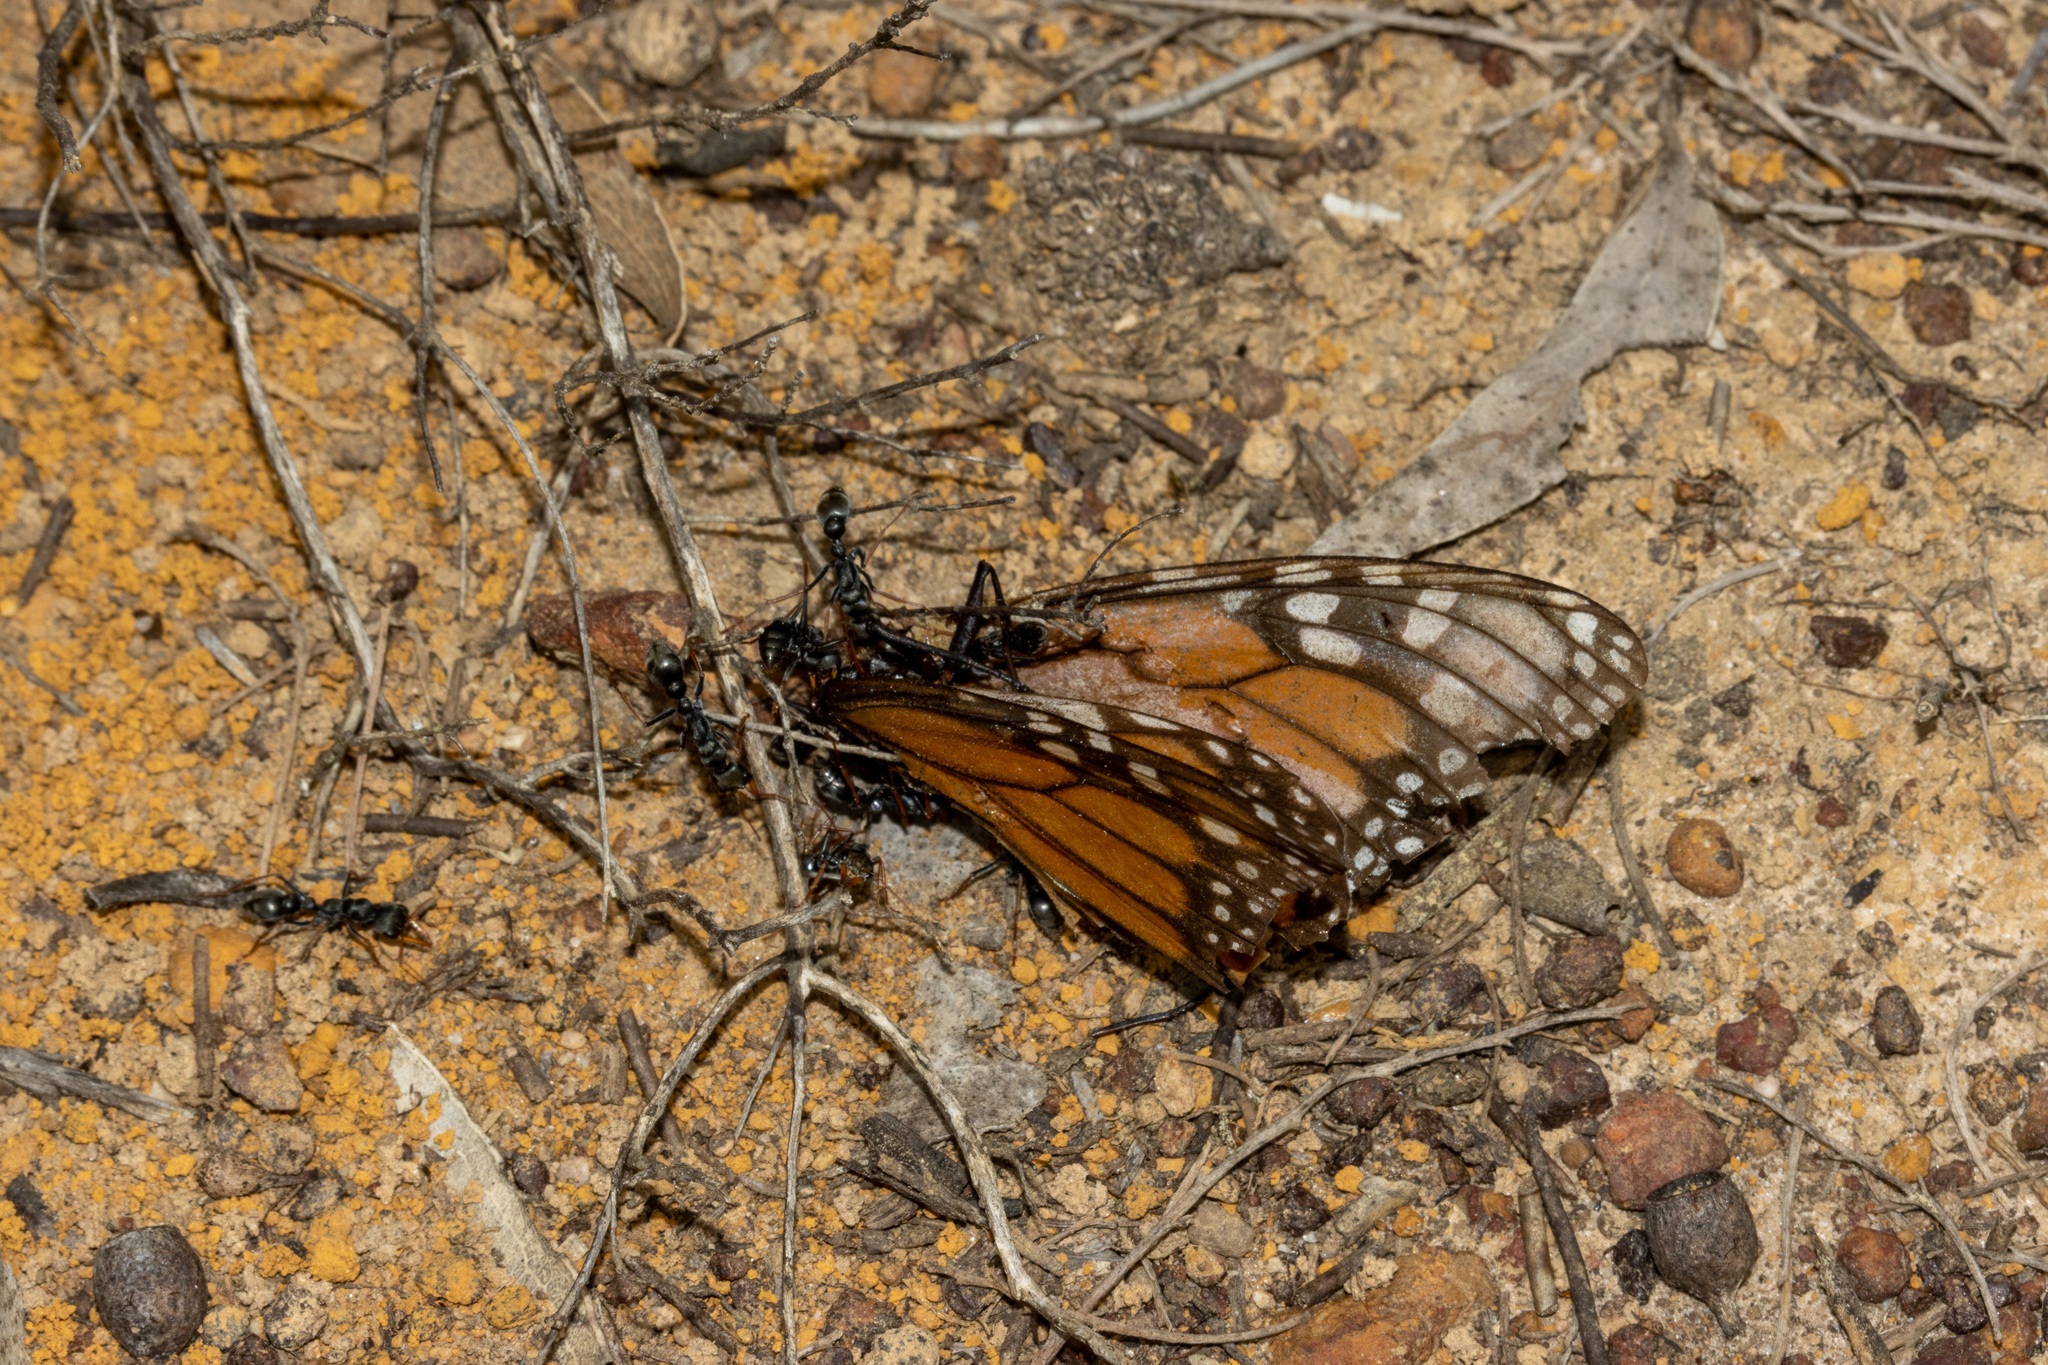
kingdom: Animalia
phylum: Arthropoda
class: Insecta
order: Lepidoptera
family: Nymphalidae
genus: Danaus
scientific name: Danaus plexippus
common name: Monarch
